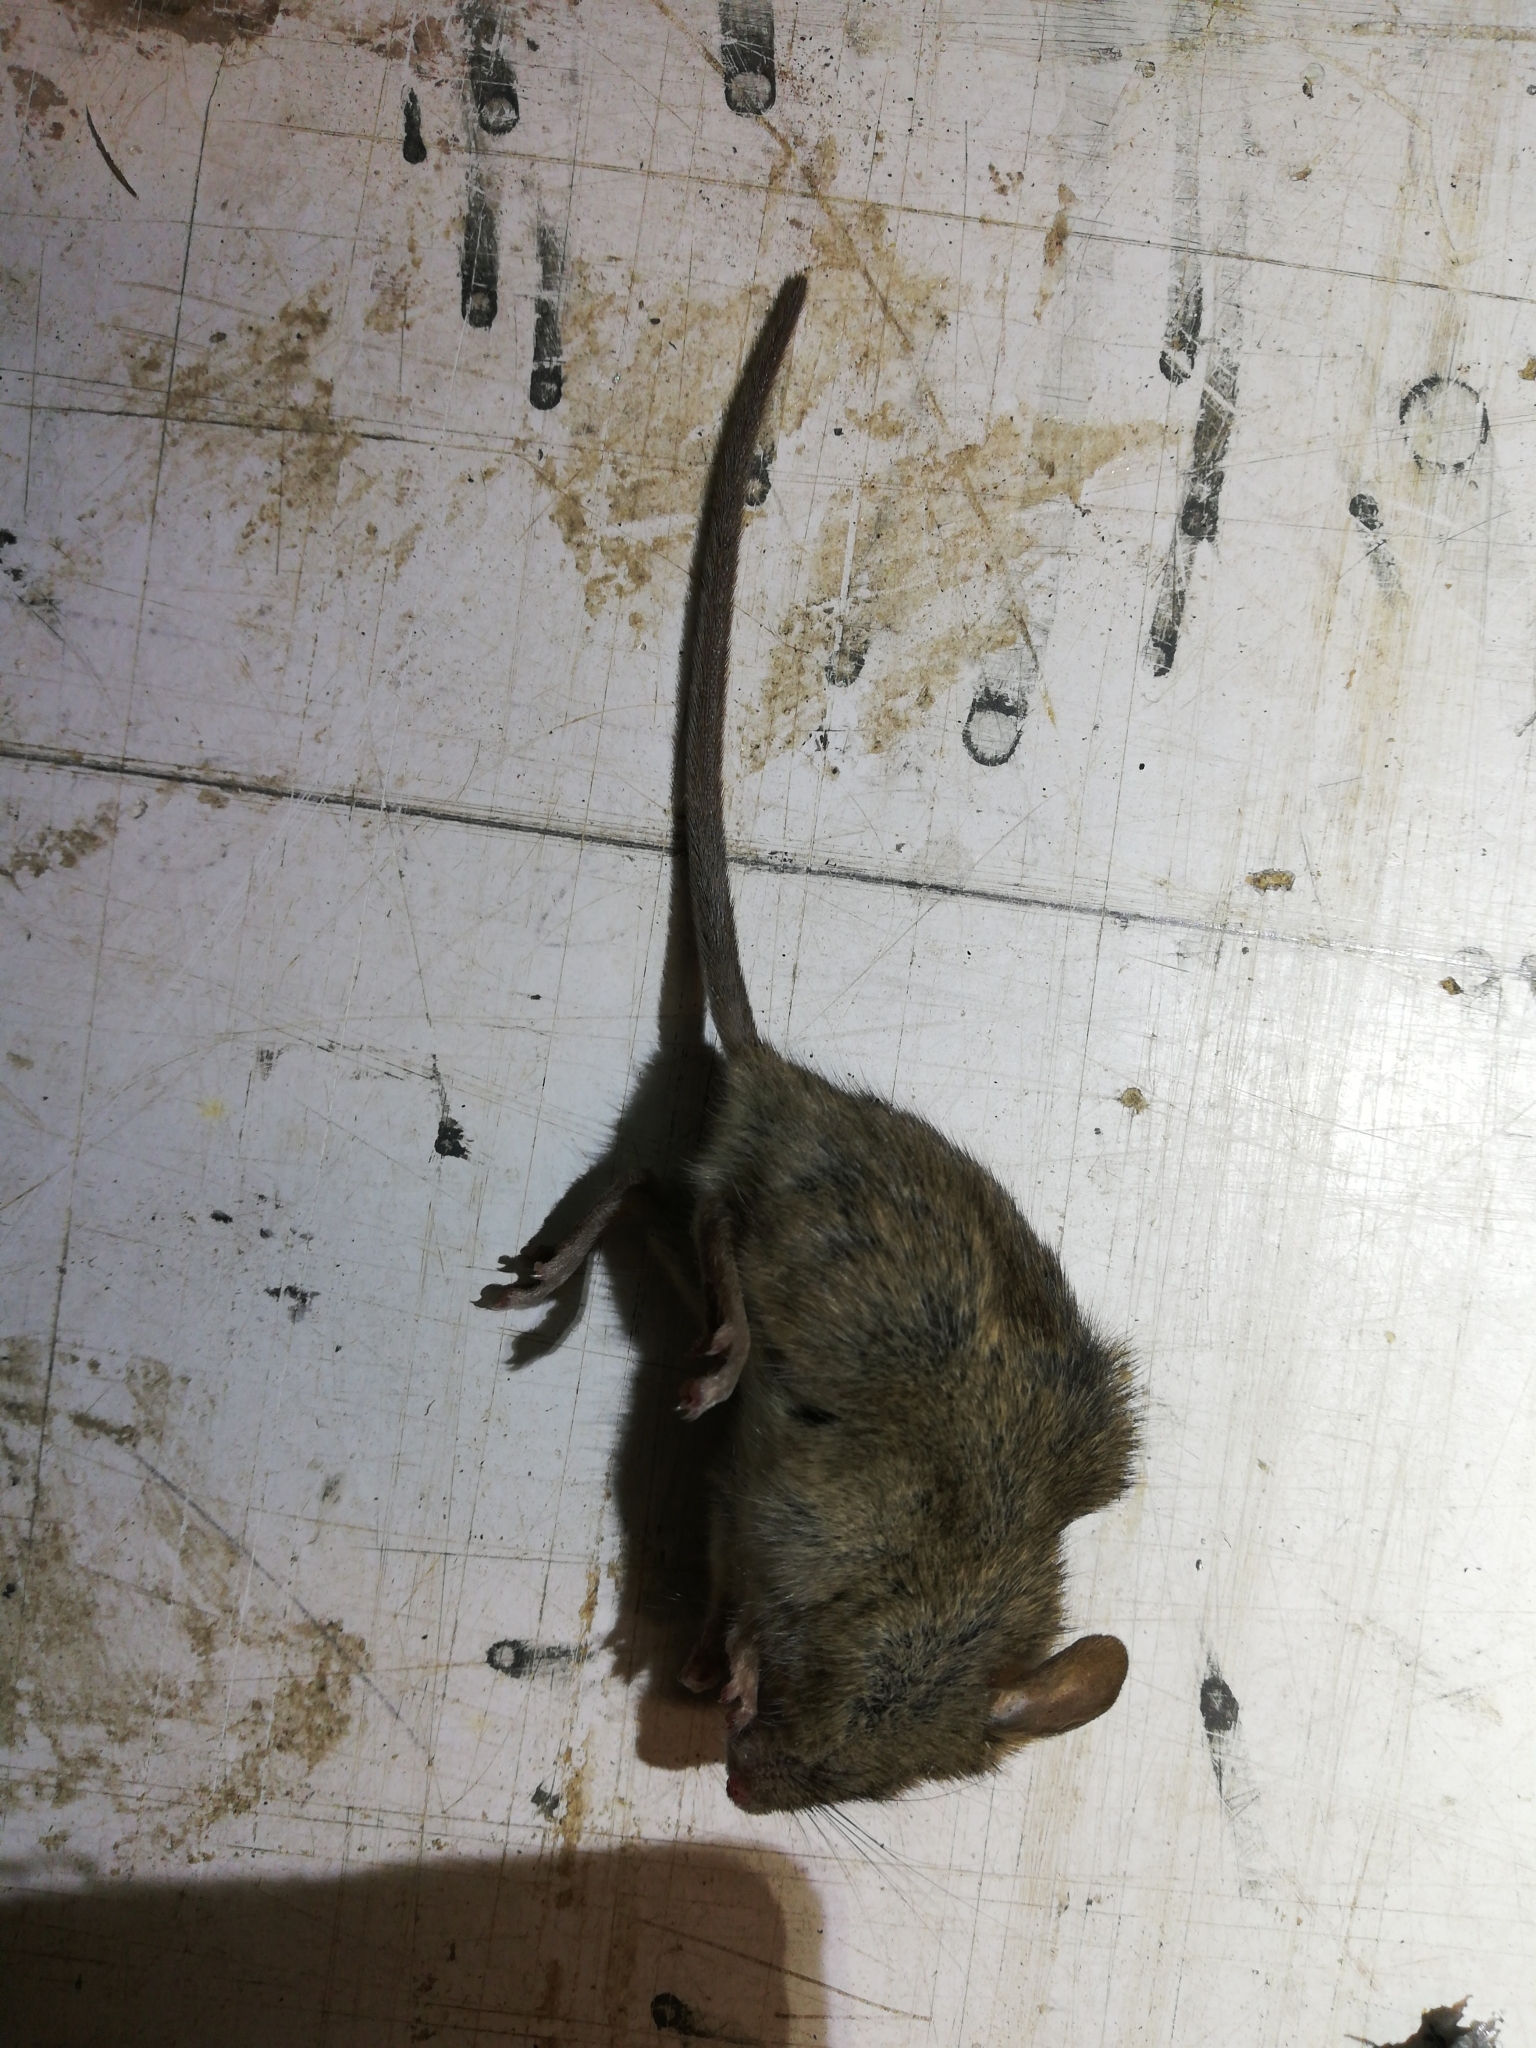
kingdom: Animalia
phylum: Chordata
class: Mammalia
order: Rodentia
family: Muridae
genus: Mus
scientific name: Mus musculus
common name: House mouse
